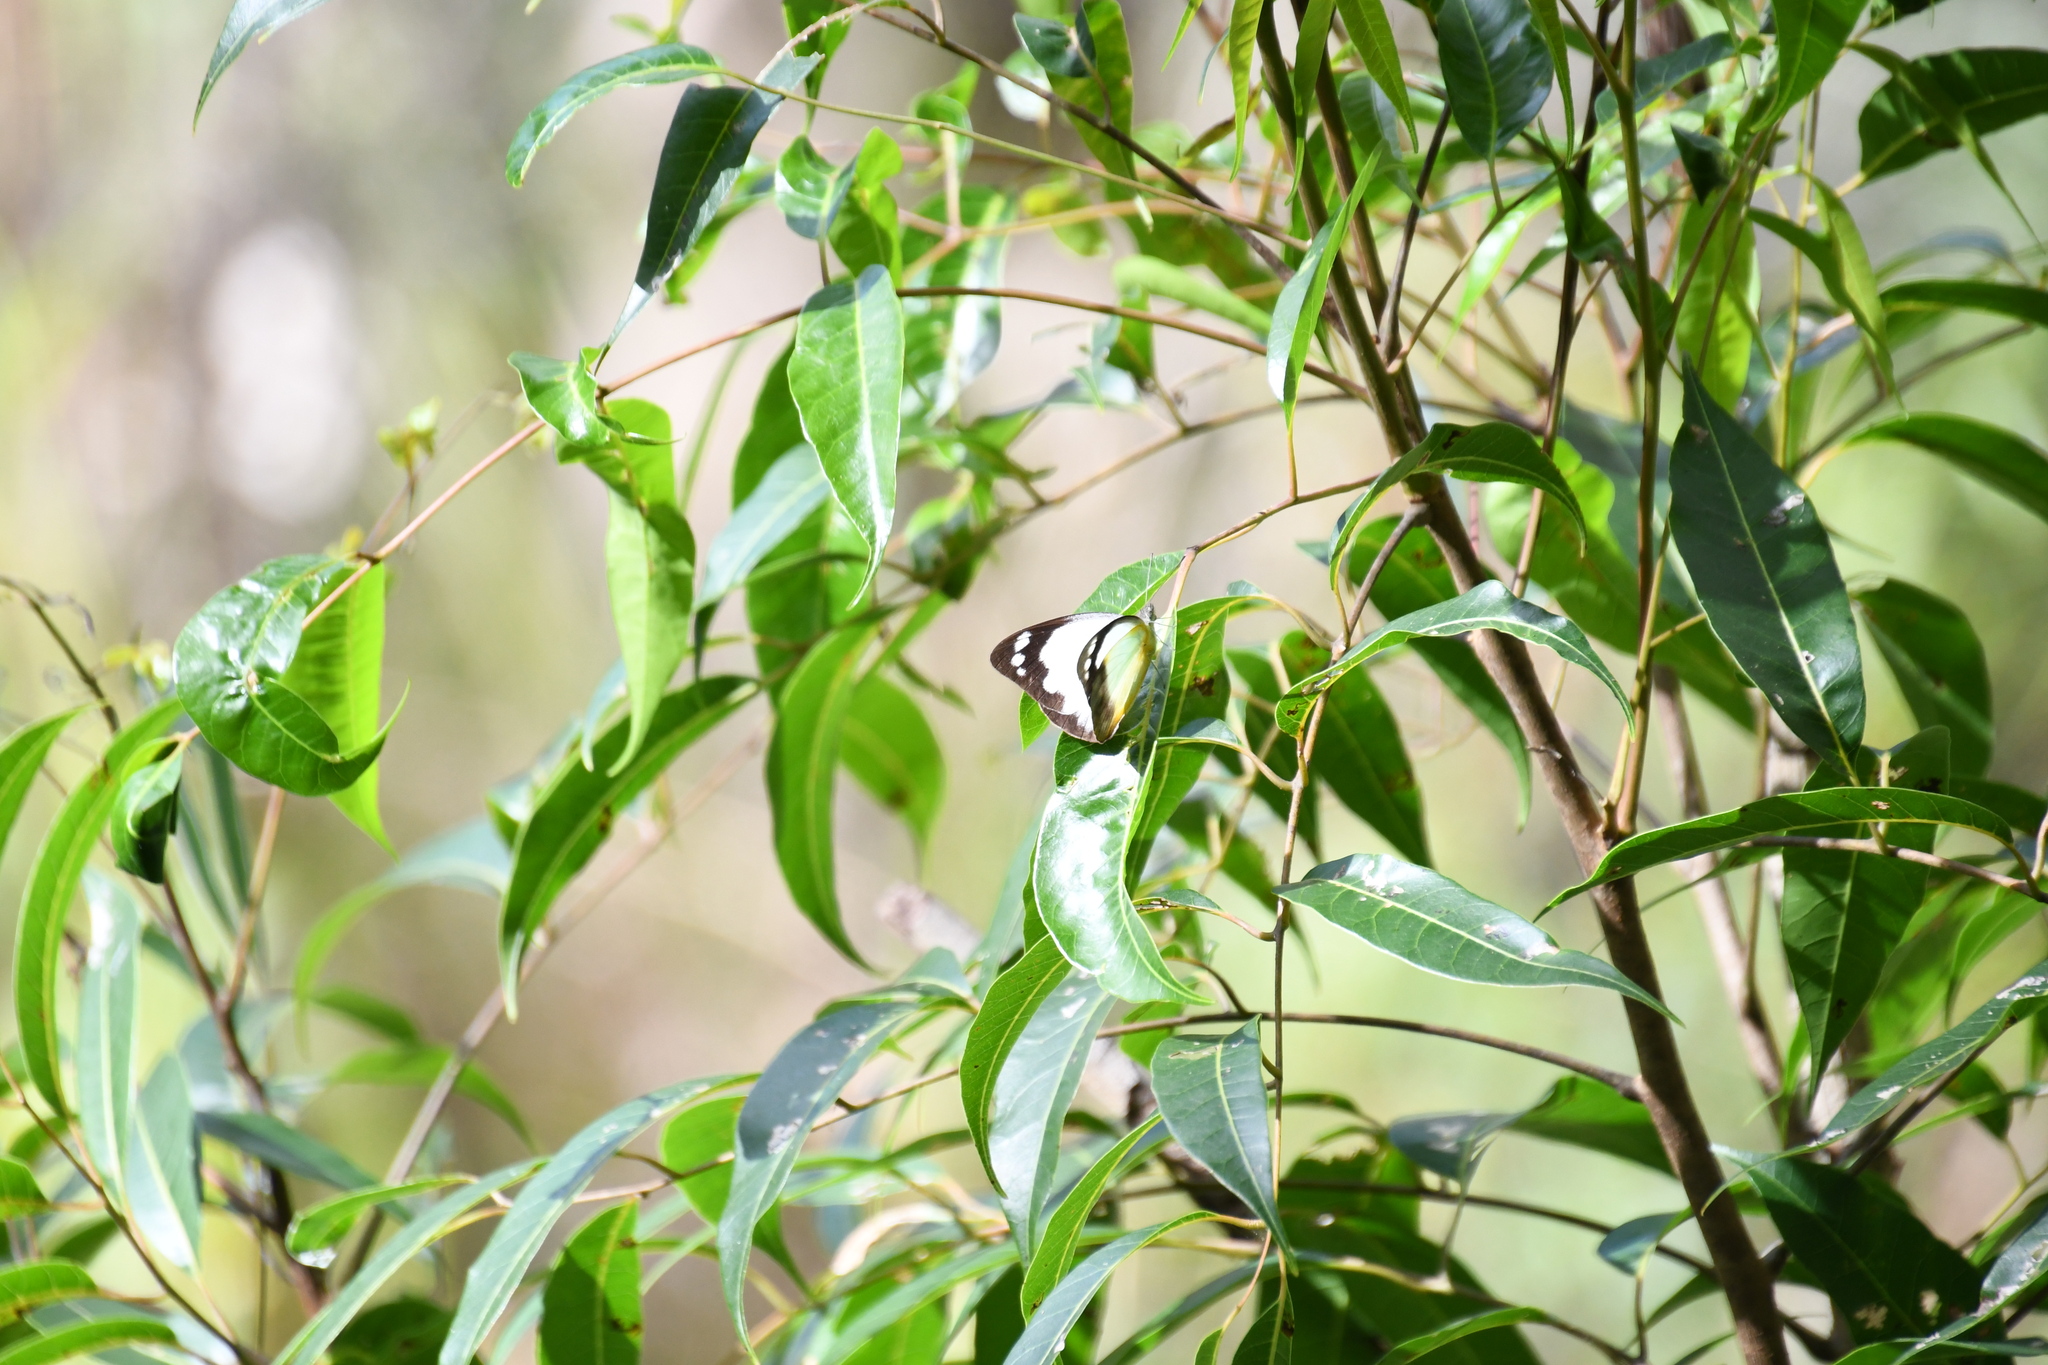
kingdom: Animalia
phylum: Arthropoda
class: Insecta
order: Lepidoptera
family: Pieridae
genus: Cepora
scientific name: Cepora perimale
